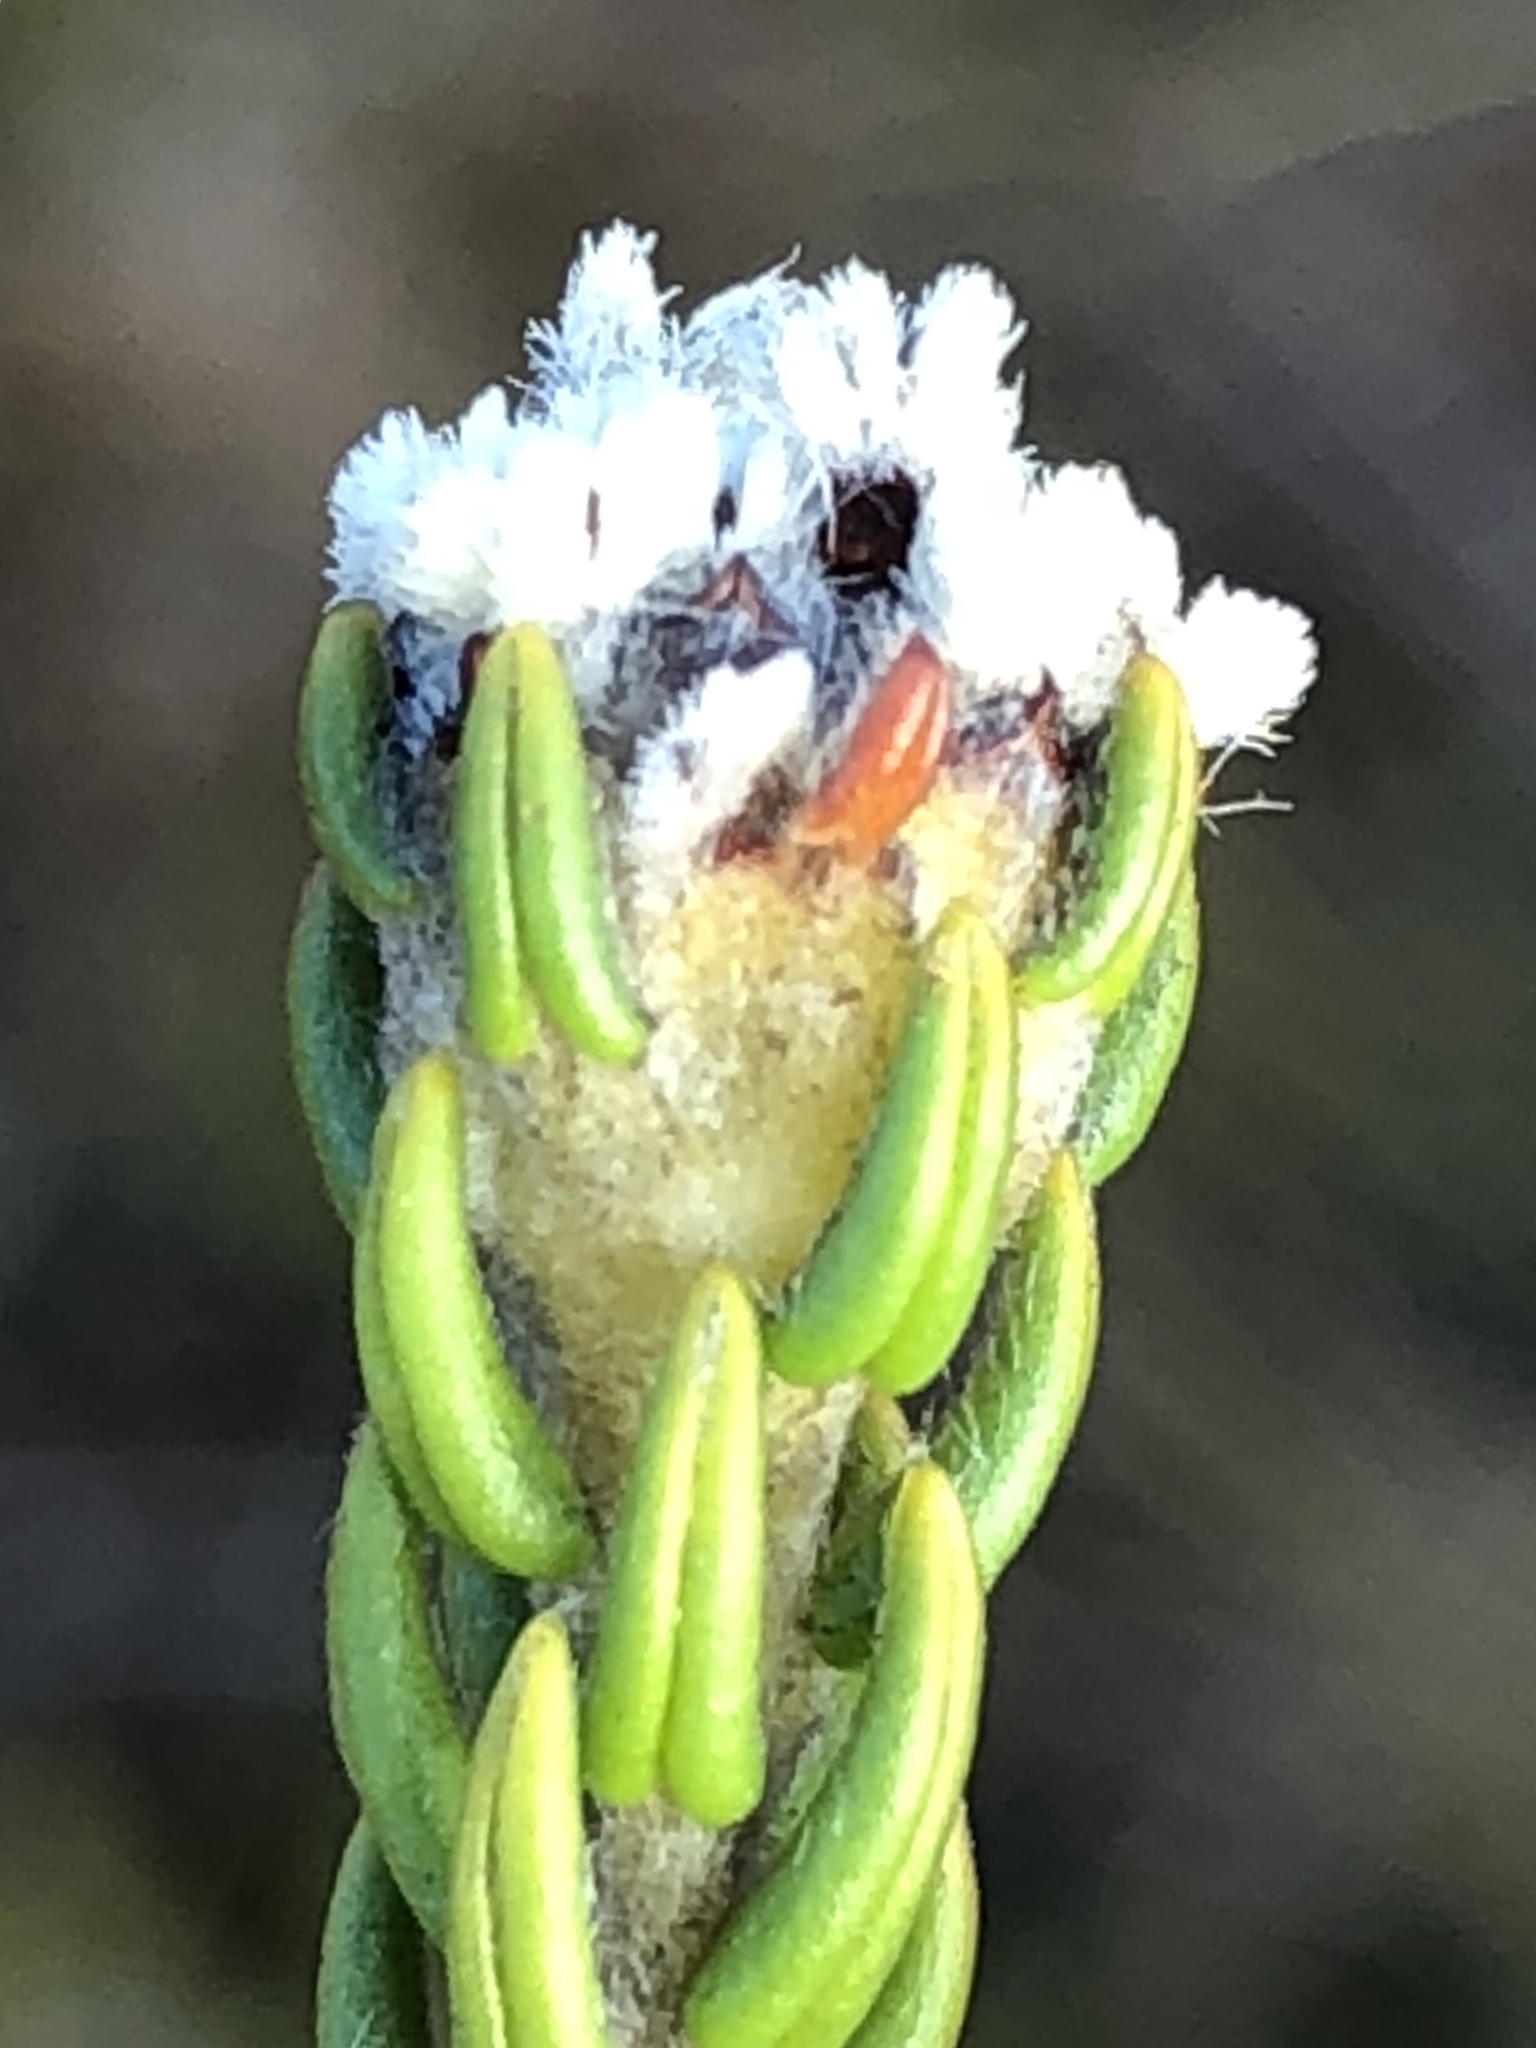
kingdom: Plantae
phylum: Tracheophyta
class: Magnoliopsida
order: Rosales
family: Rhamnaceae
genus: Phylica
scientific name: Phylica nigrita
